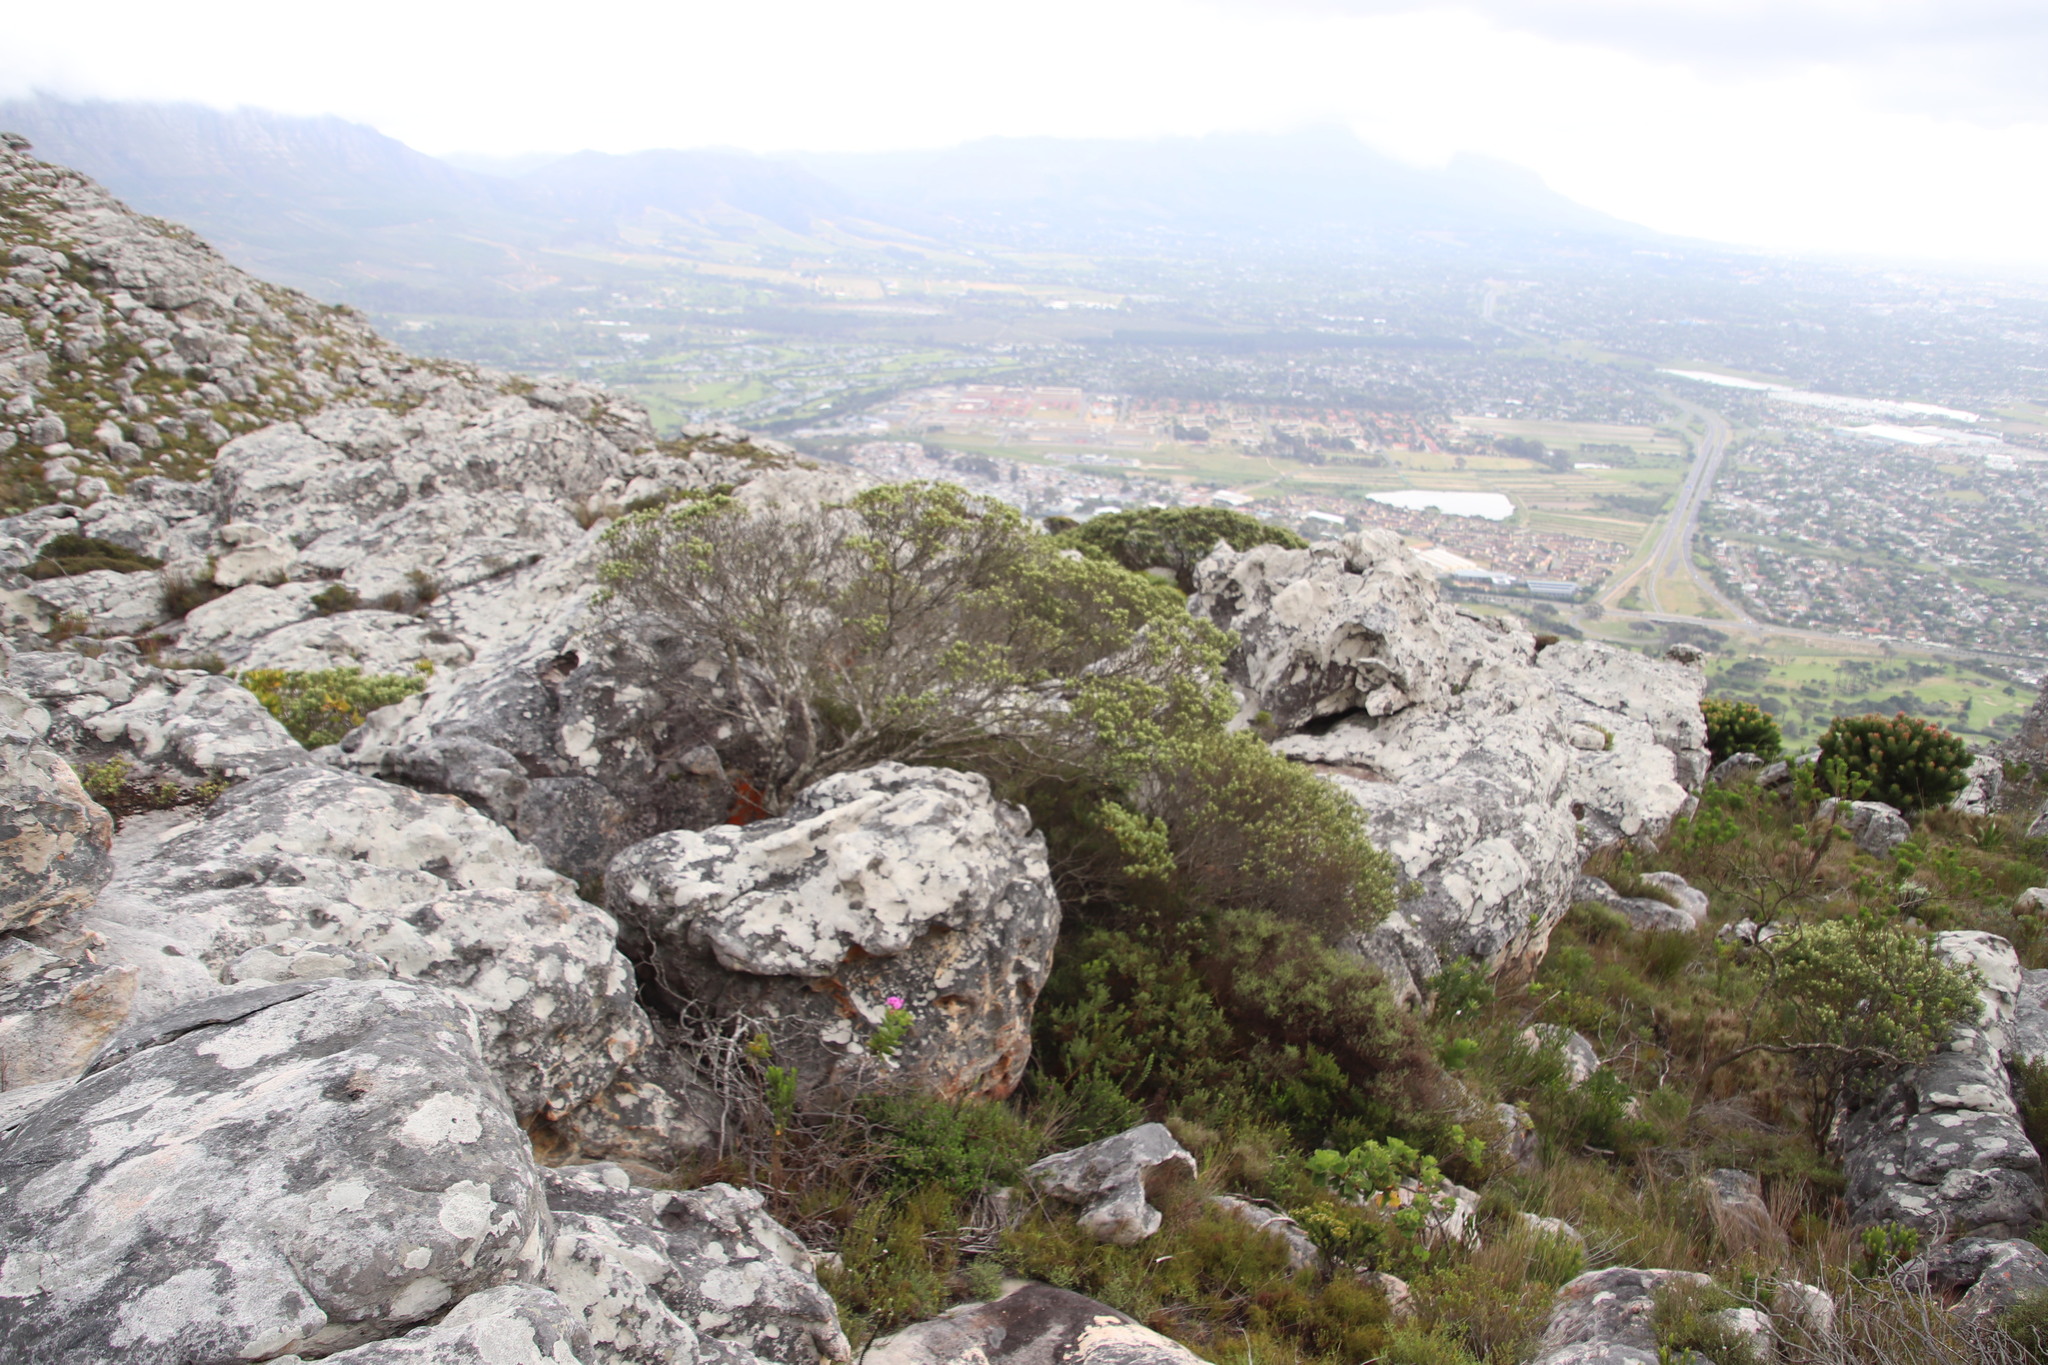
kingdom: Plantae
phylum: Tracheophyta
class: Magnoliopsida
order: Rosales
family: Rhamnaceae
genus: Phylica
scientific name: Phylica buxifolia
